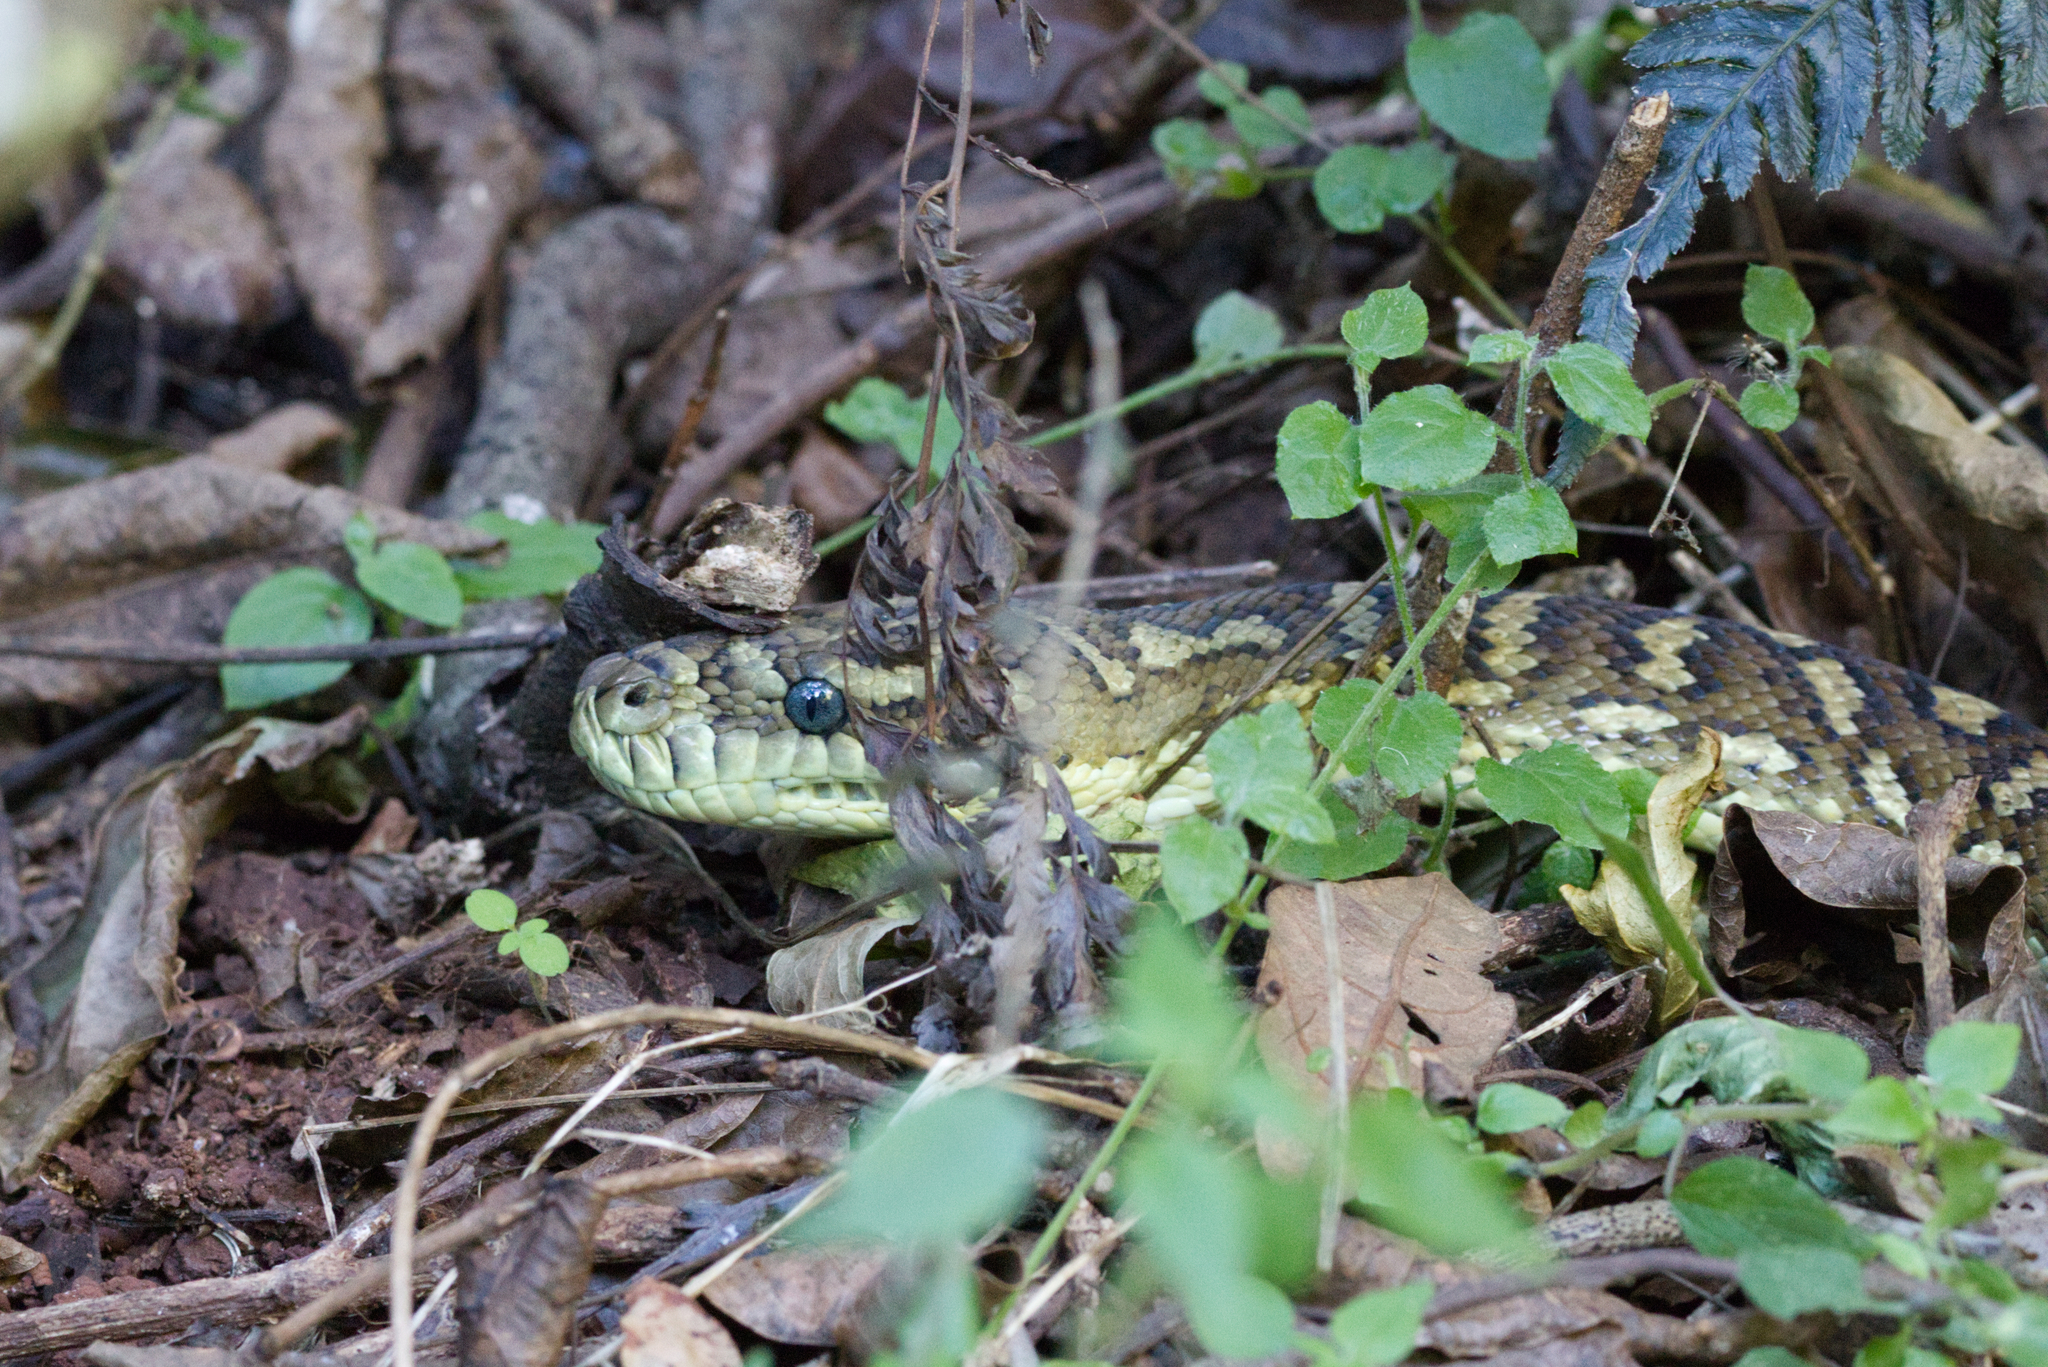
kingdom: Animalia
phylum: Chordata
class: Squamata
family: Pythonidae
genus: Morelia
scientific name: Morelia spilota
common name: Carpet python
